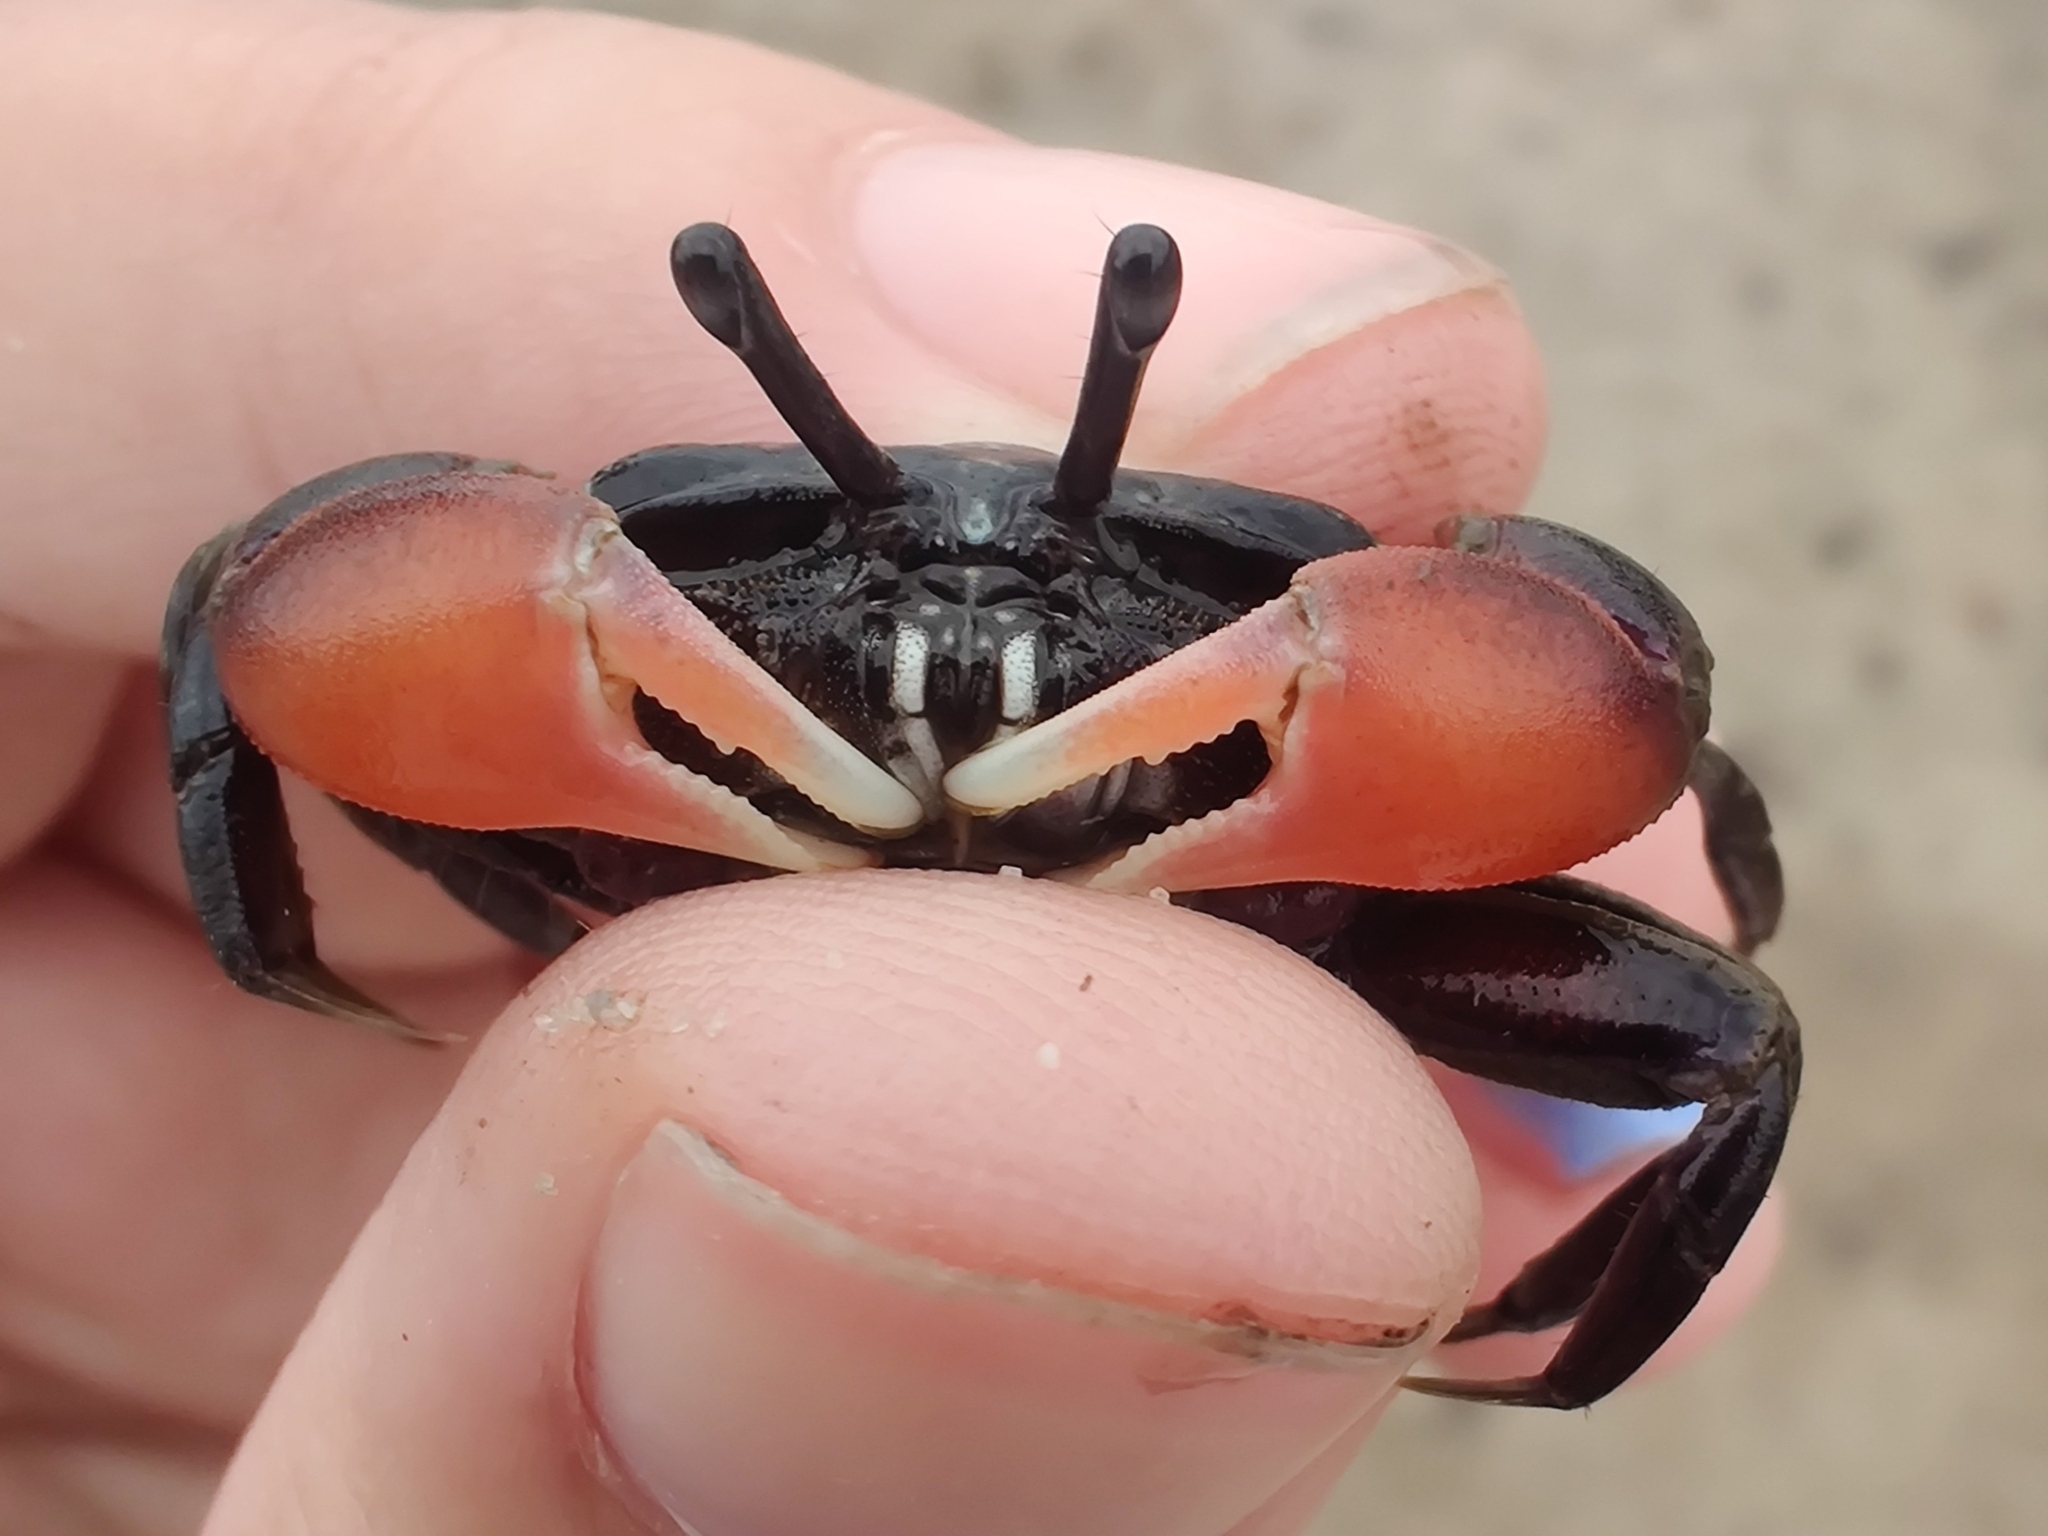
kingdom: Animalia
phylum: Arthropoda
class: Malacostraca
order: Decapoda
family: Heloeciidae
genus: Heloecius
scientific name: Heloecius cordiformis
